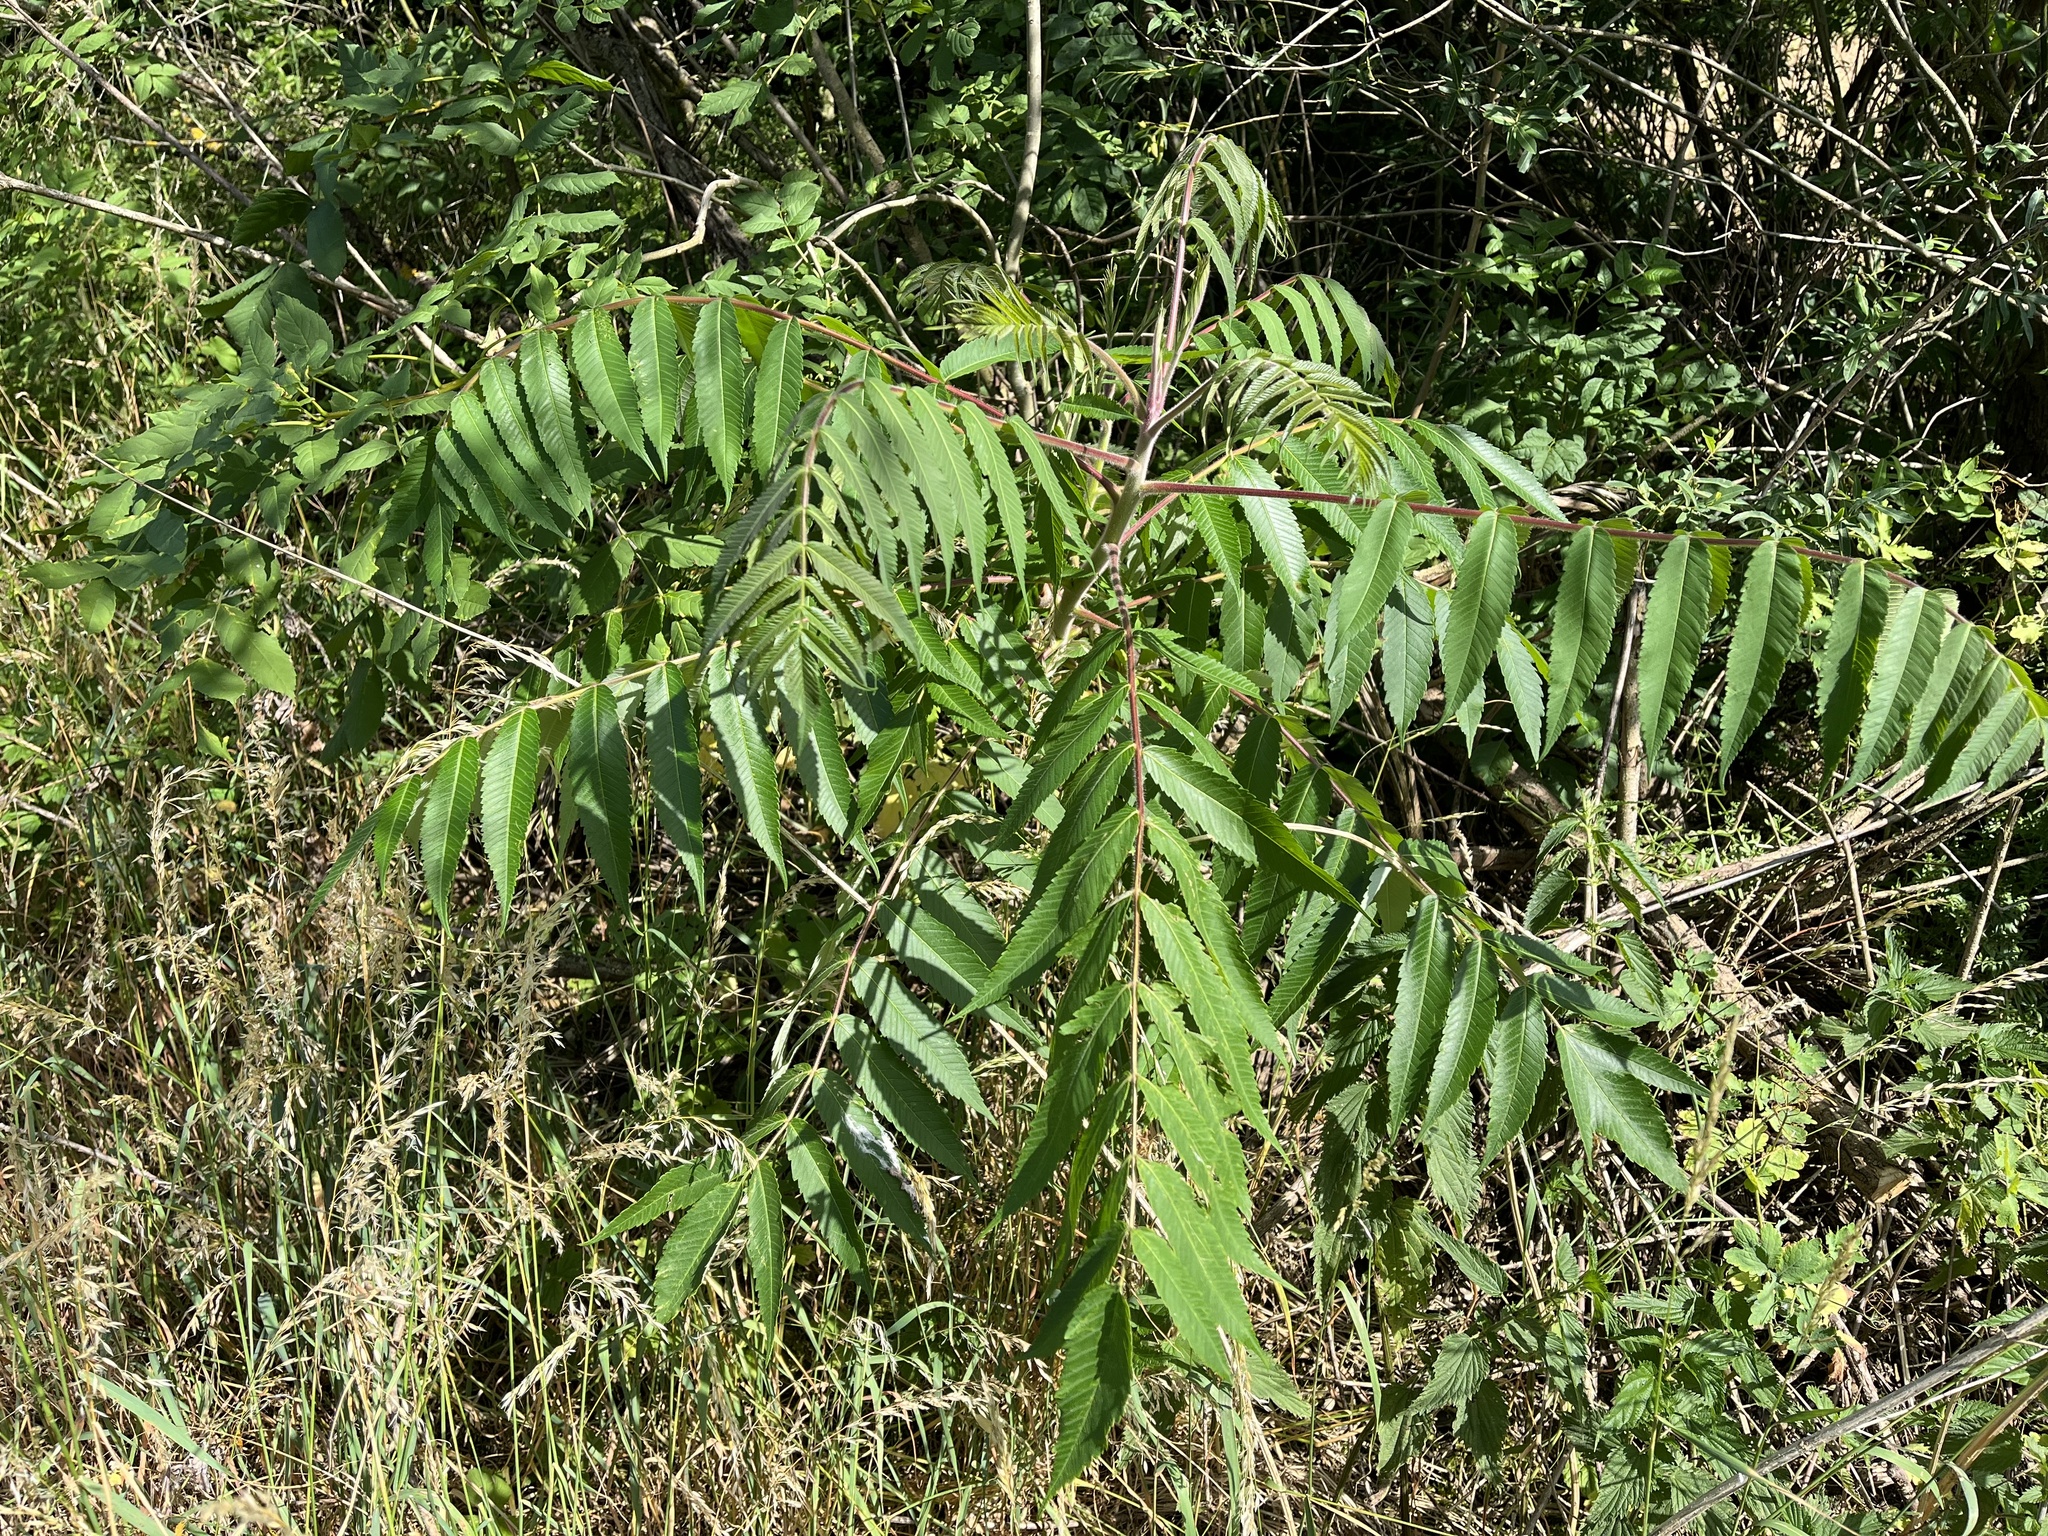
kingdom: Plantae
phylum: Tracheophyta
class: Magnoliopsida
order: Sapindales
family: Anacardiaceae
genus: Rhus
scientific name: Rhus typhina
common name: Staghorn sumac
